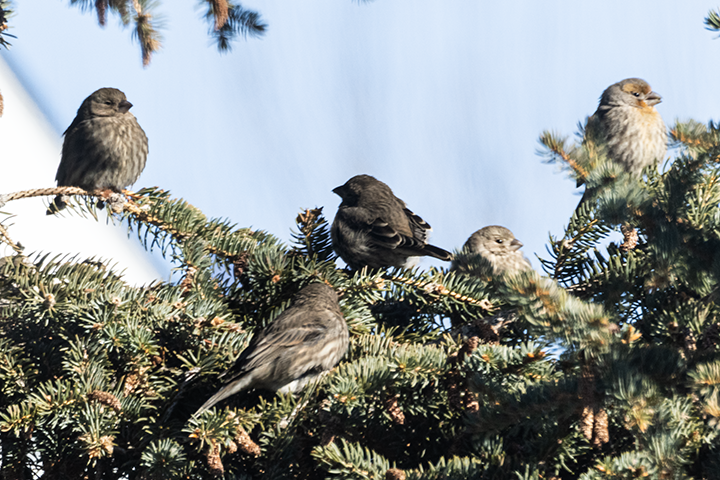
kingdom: Animalia
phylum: Chordata
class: Aves
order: Passeriformes
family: Fringillidae
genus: Haemorhous
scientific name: Haemorhous mexicanus
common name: House finch
